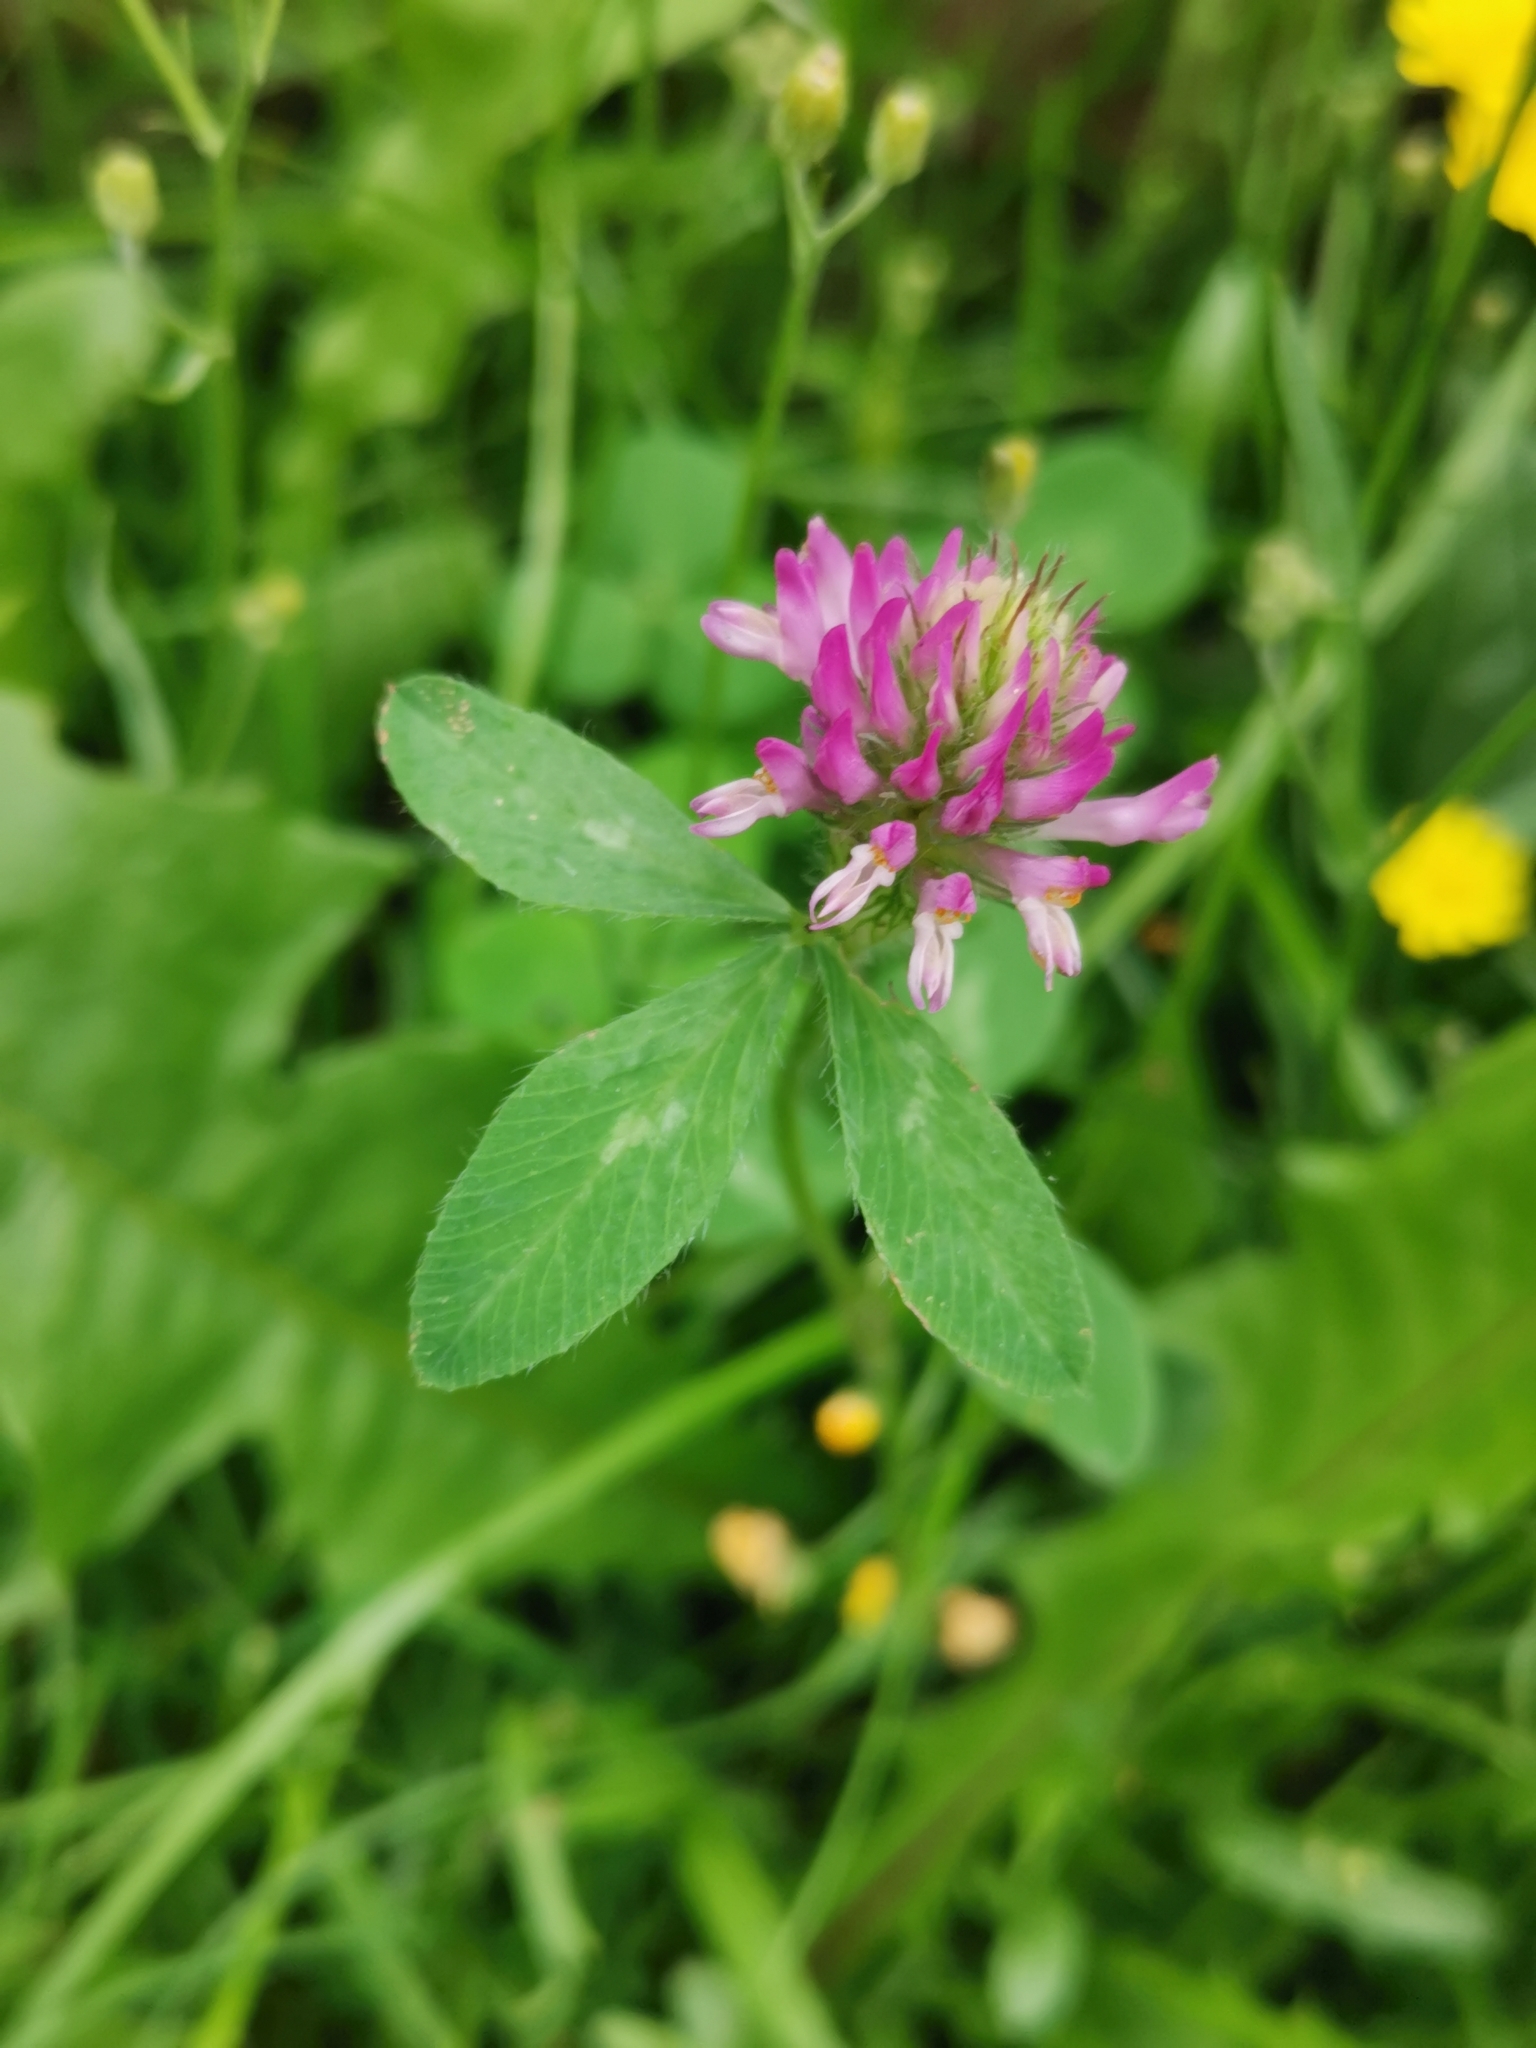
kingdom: Plantae
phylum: Tracheophyta
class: Magnoliopsida
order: Fabales
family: Fabaceae
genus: Trifolium
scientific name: Trifolium pratense
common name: Red clover
